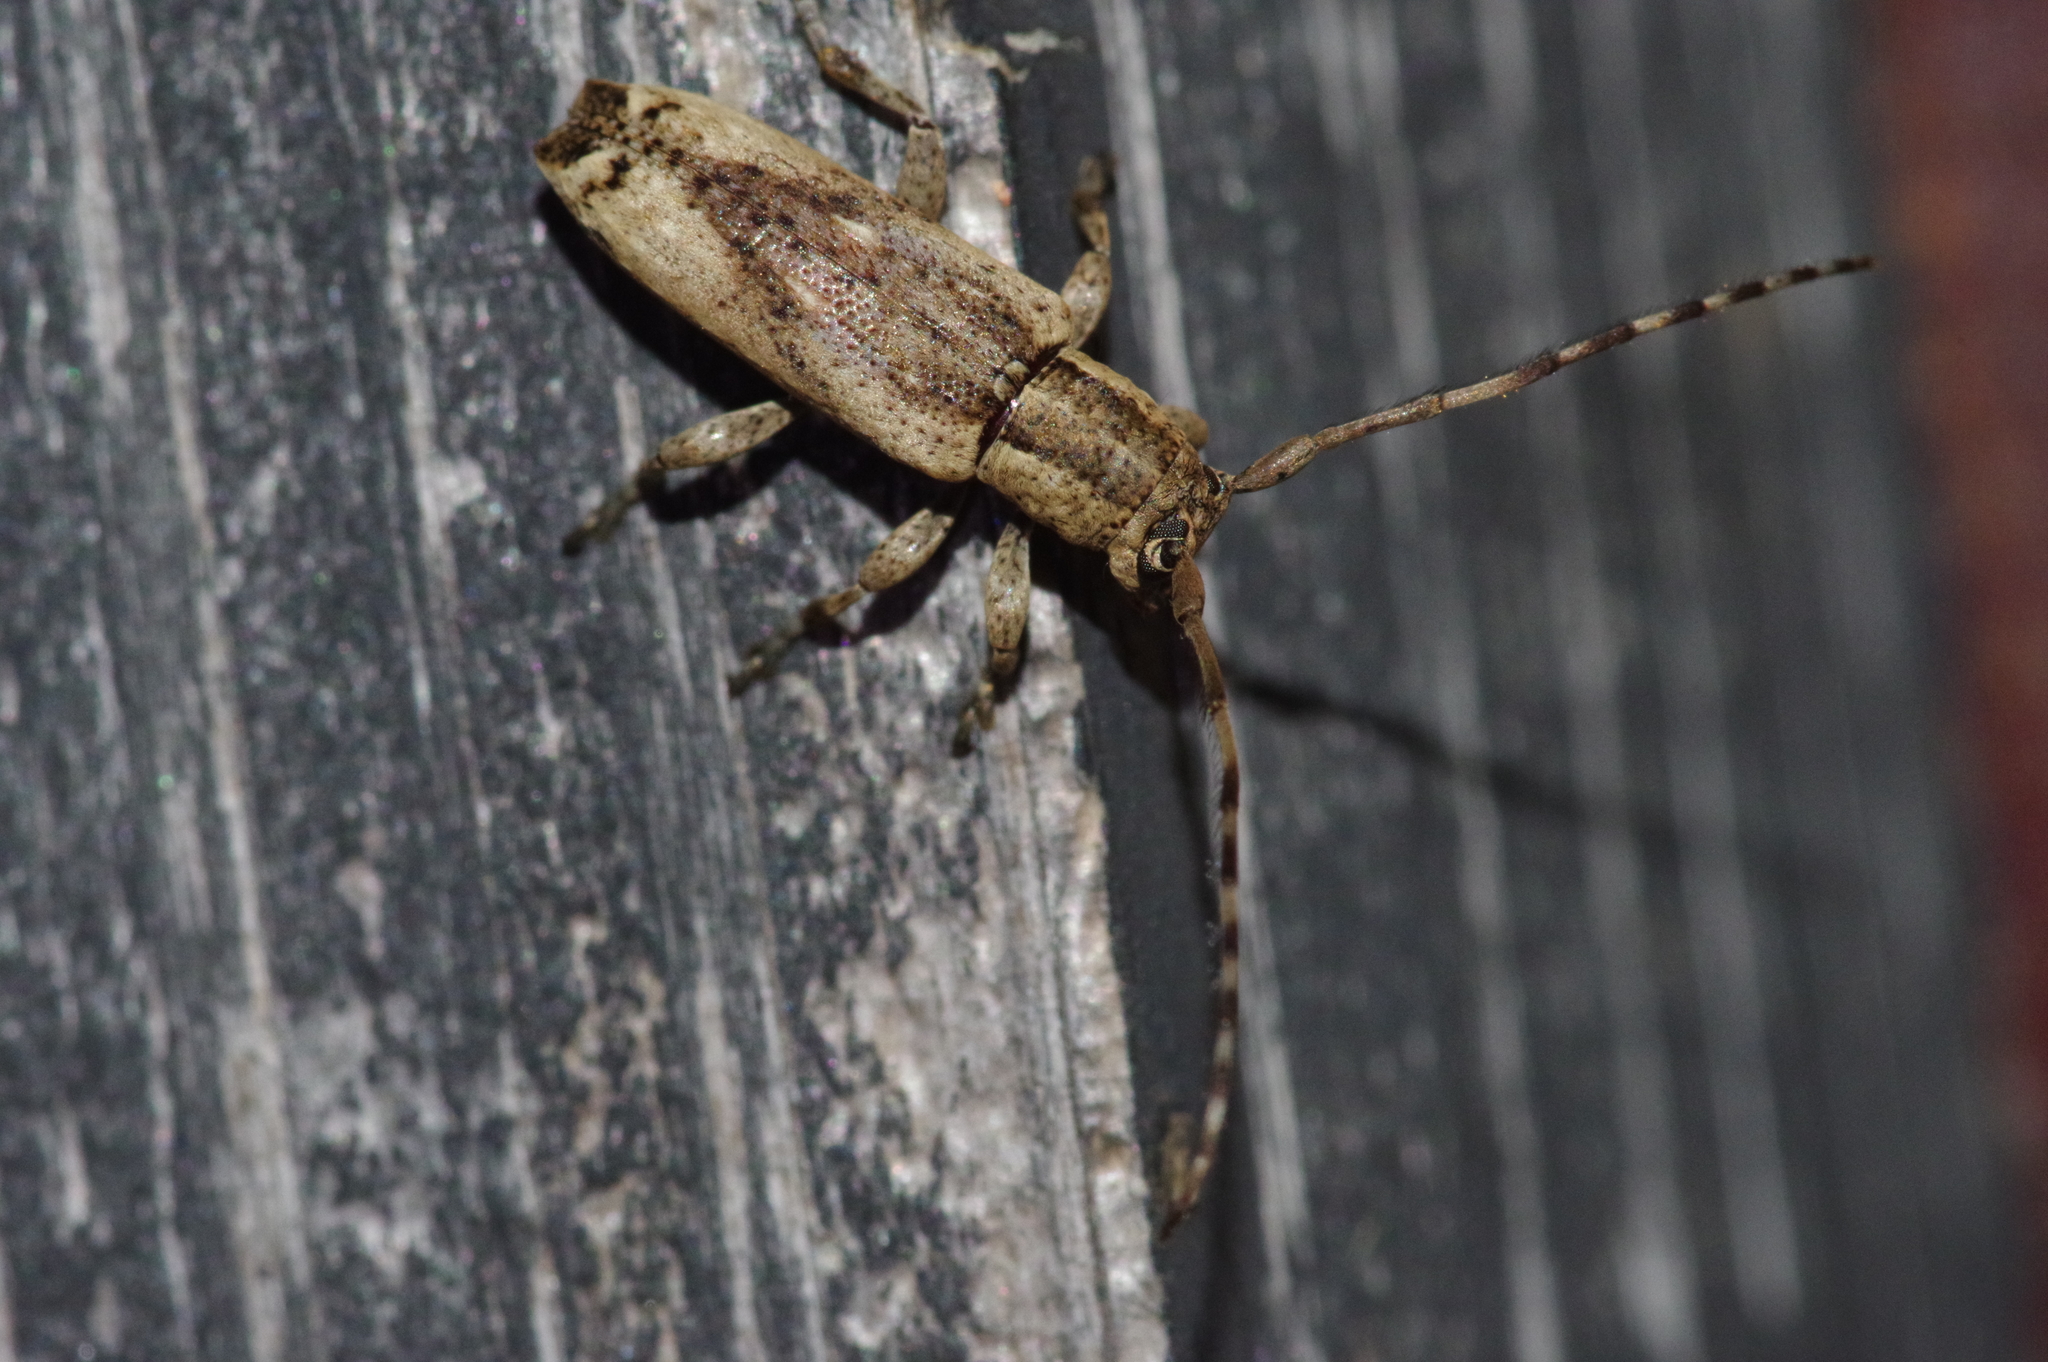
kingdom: Animalia
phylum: Arthropoda
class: Insecta
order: Coleoptera
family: Cerambycidae
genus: Mimectatina
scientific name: Mimectatina meridiana
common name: Long-horned beetle
